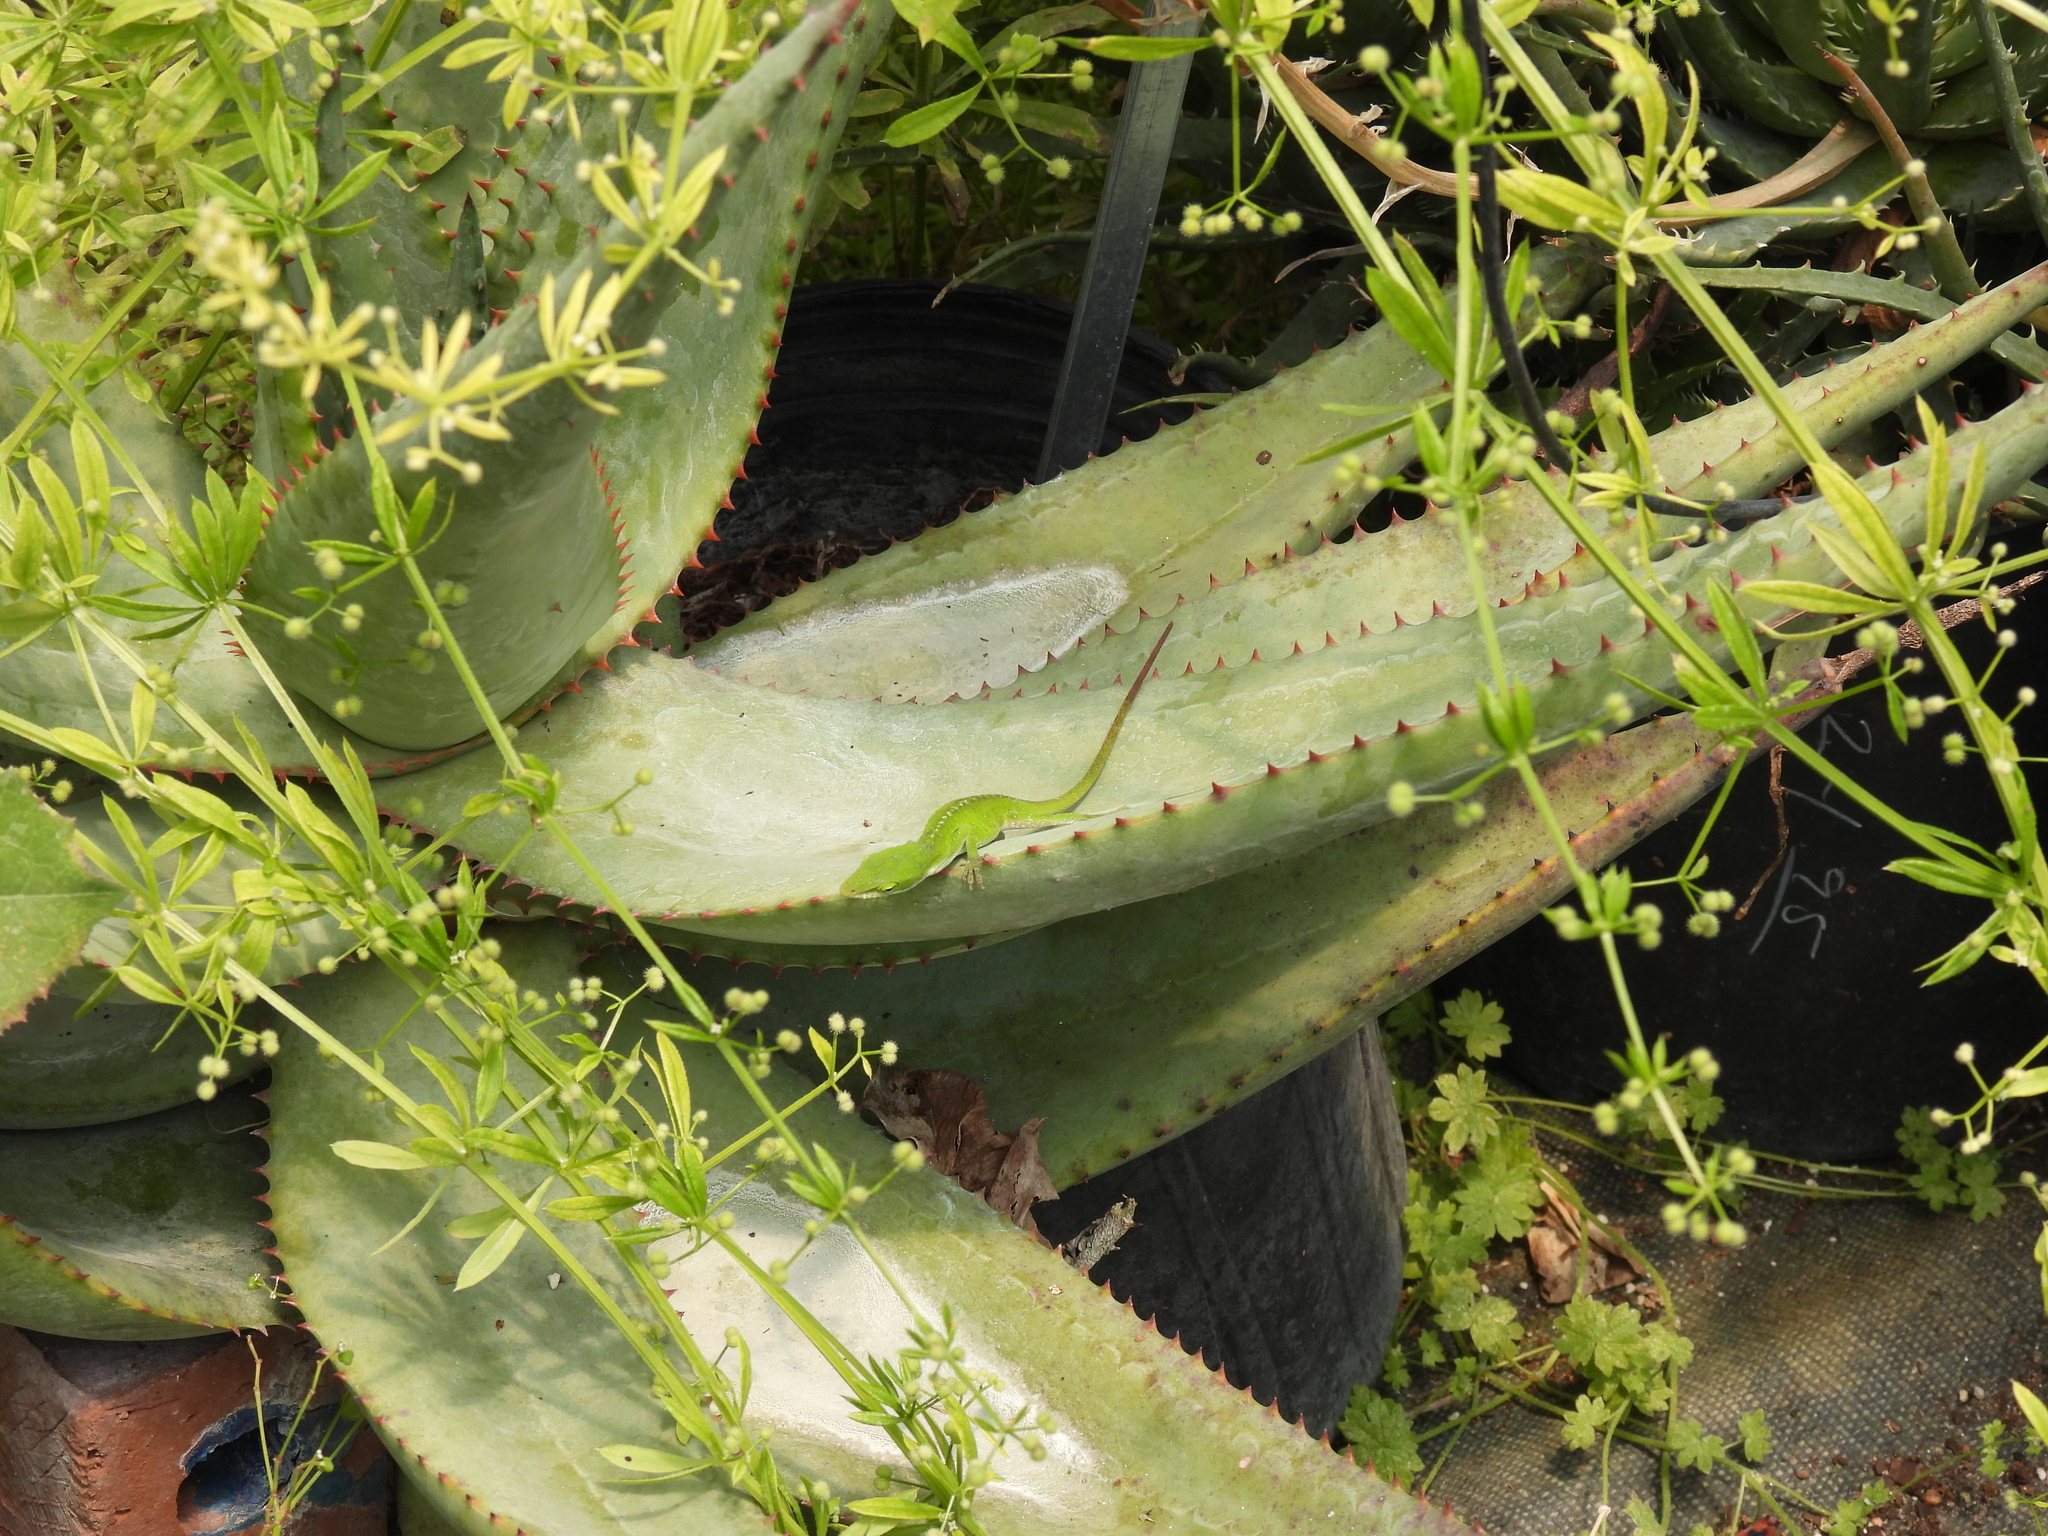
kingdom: Animalia
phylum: Chordata
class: Squamata
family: Dactyloidae
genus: Anolis
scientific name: Anolis carolinensis
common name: Green anole
